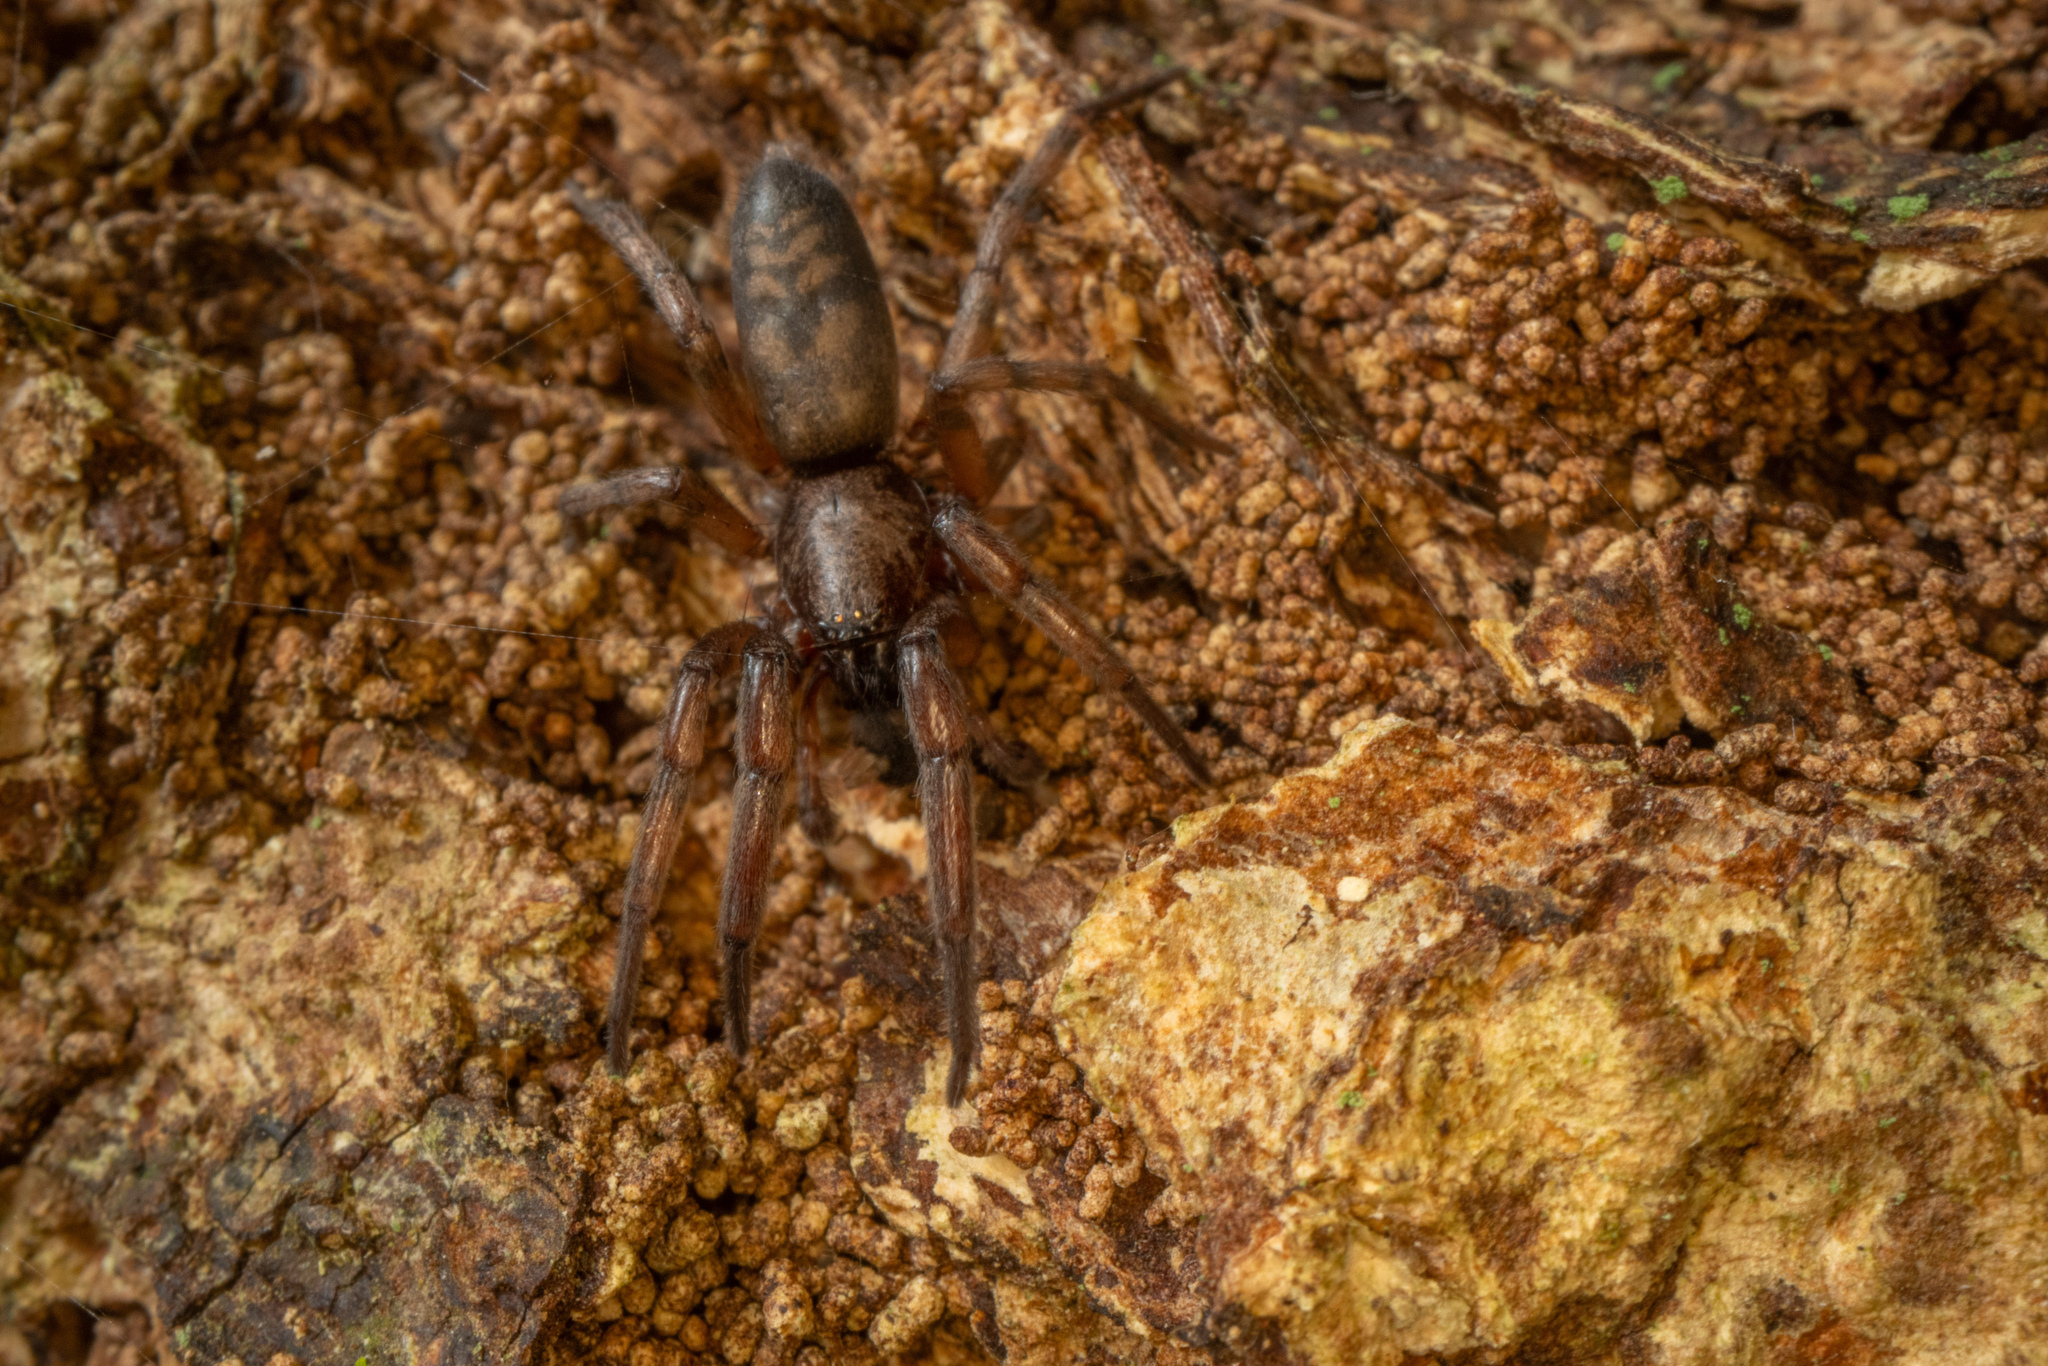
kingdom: Animalia
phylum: Arthropoda
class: Arachnida
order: Araneae
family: Gnaphosidae
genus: Intruda
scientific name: Intruda signata
